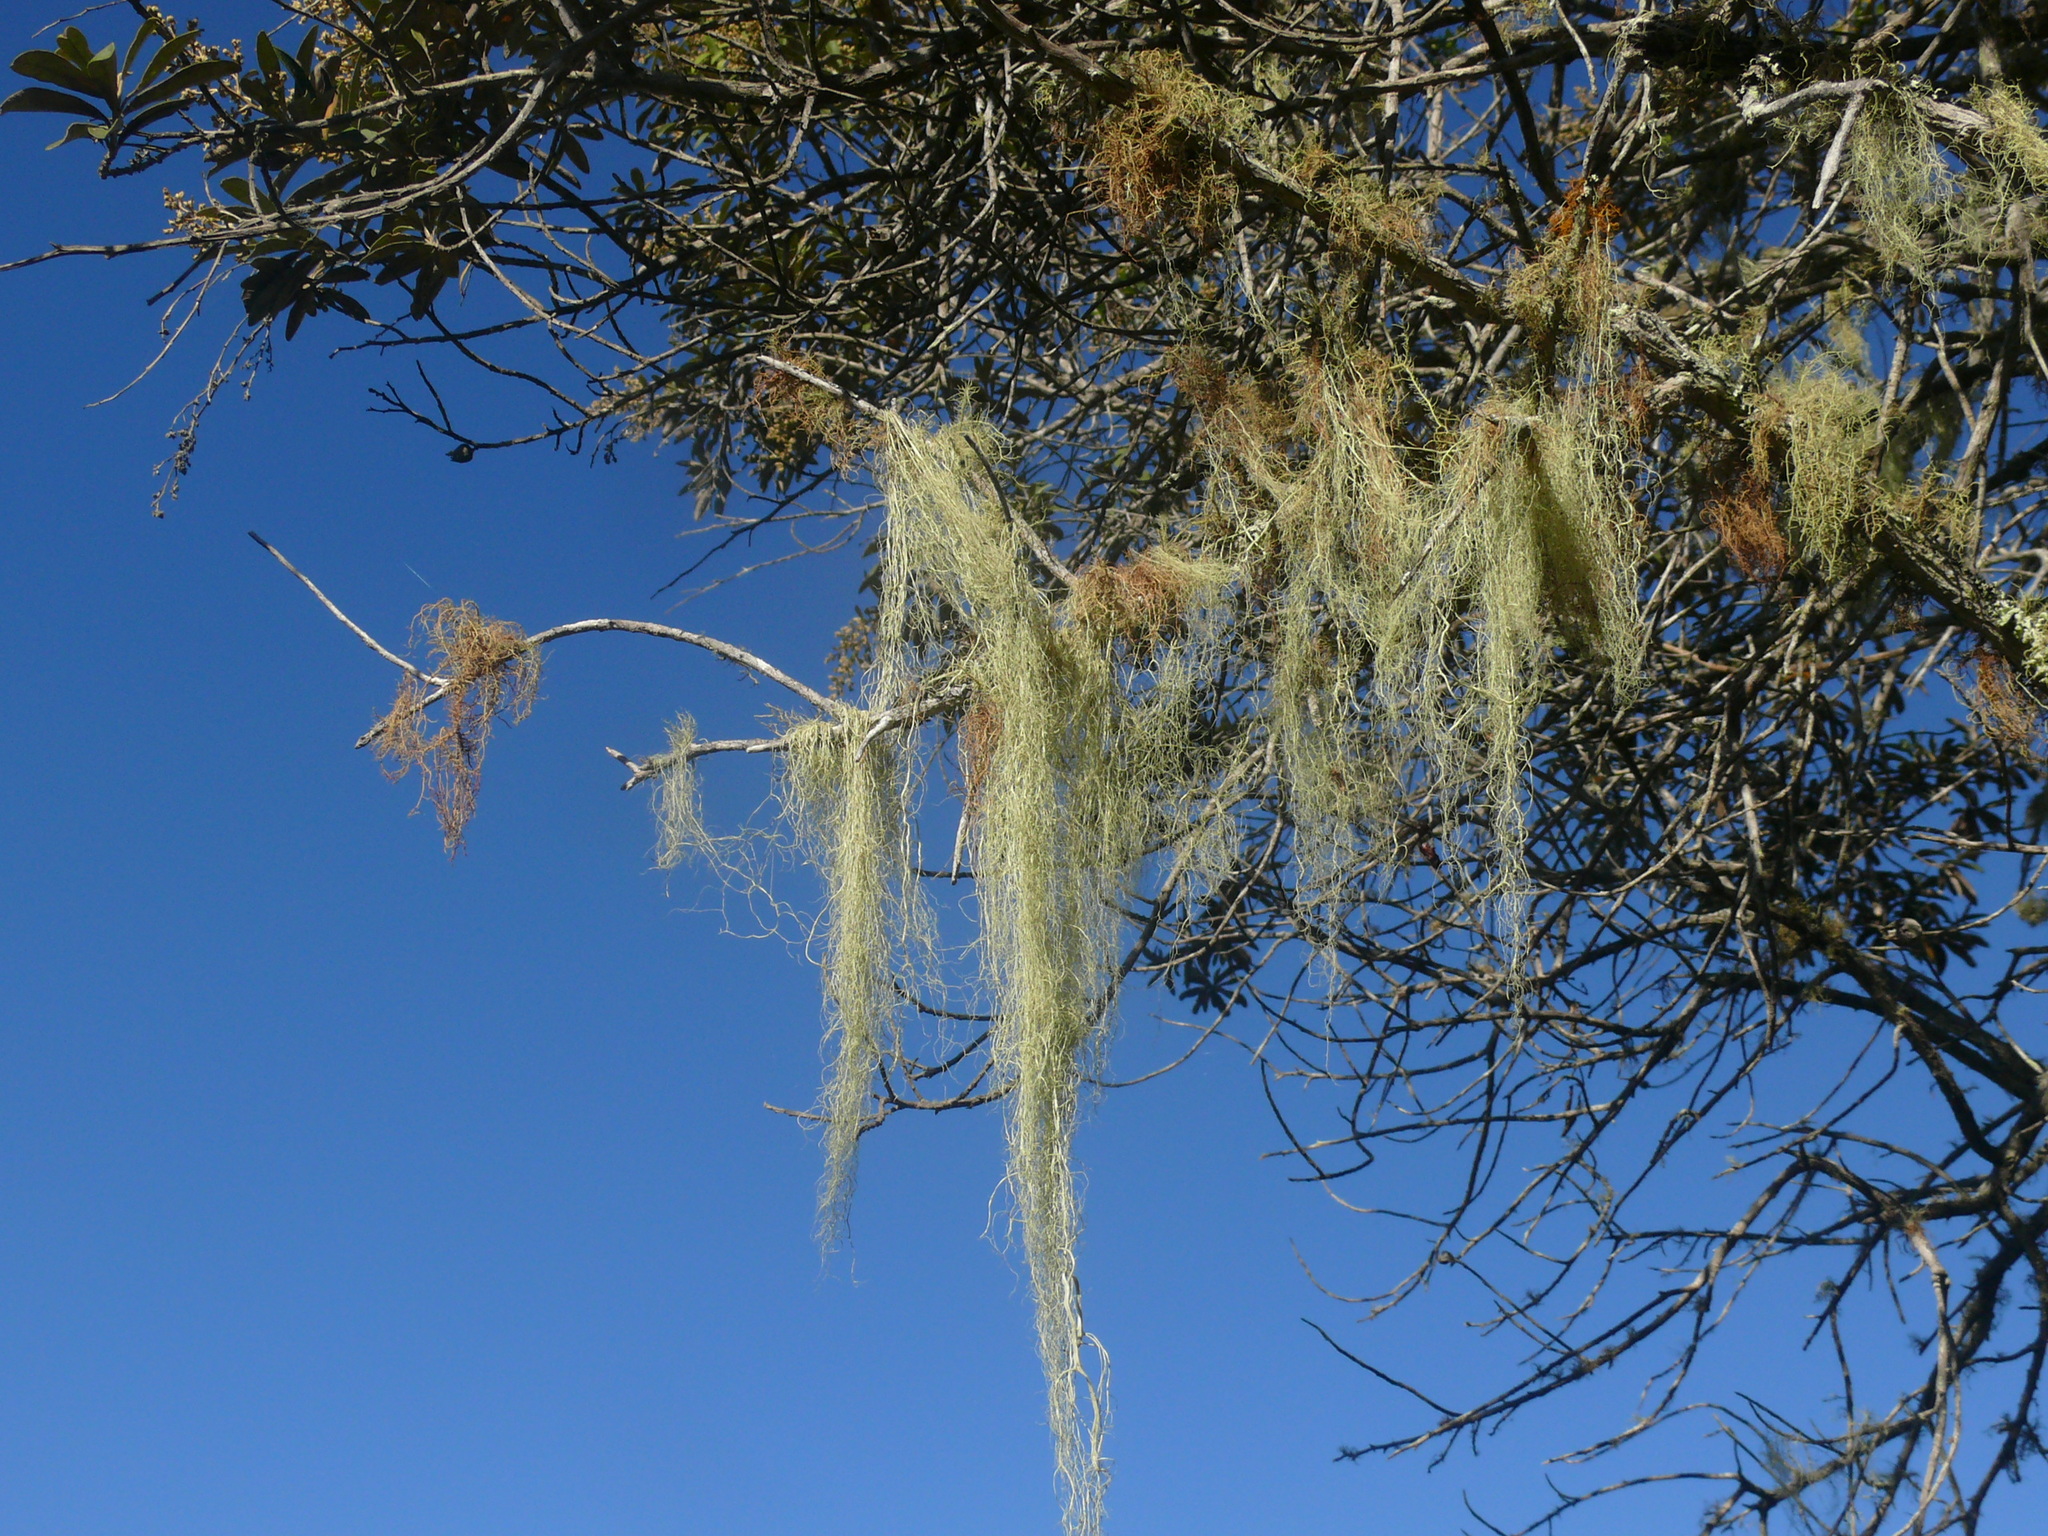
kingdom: Fungi
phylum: Ascomycota
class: Lecanoromycetes
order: Lecanorales
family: Ramalinaceae
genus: Ramalina
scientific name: Ramalina usnea
